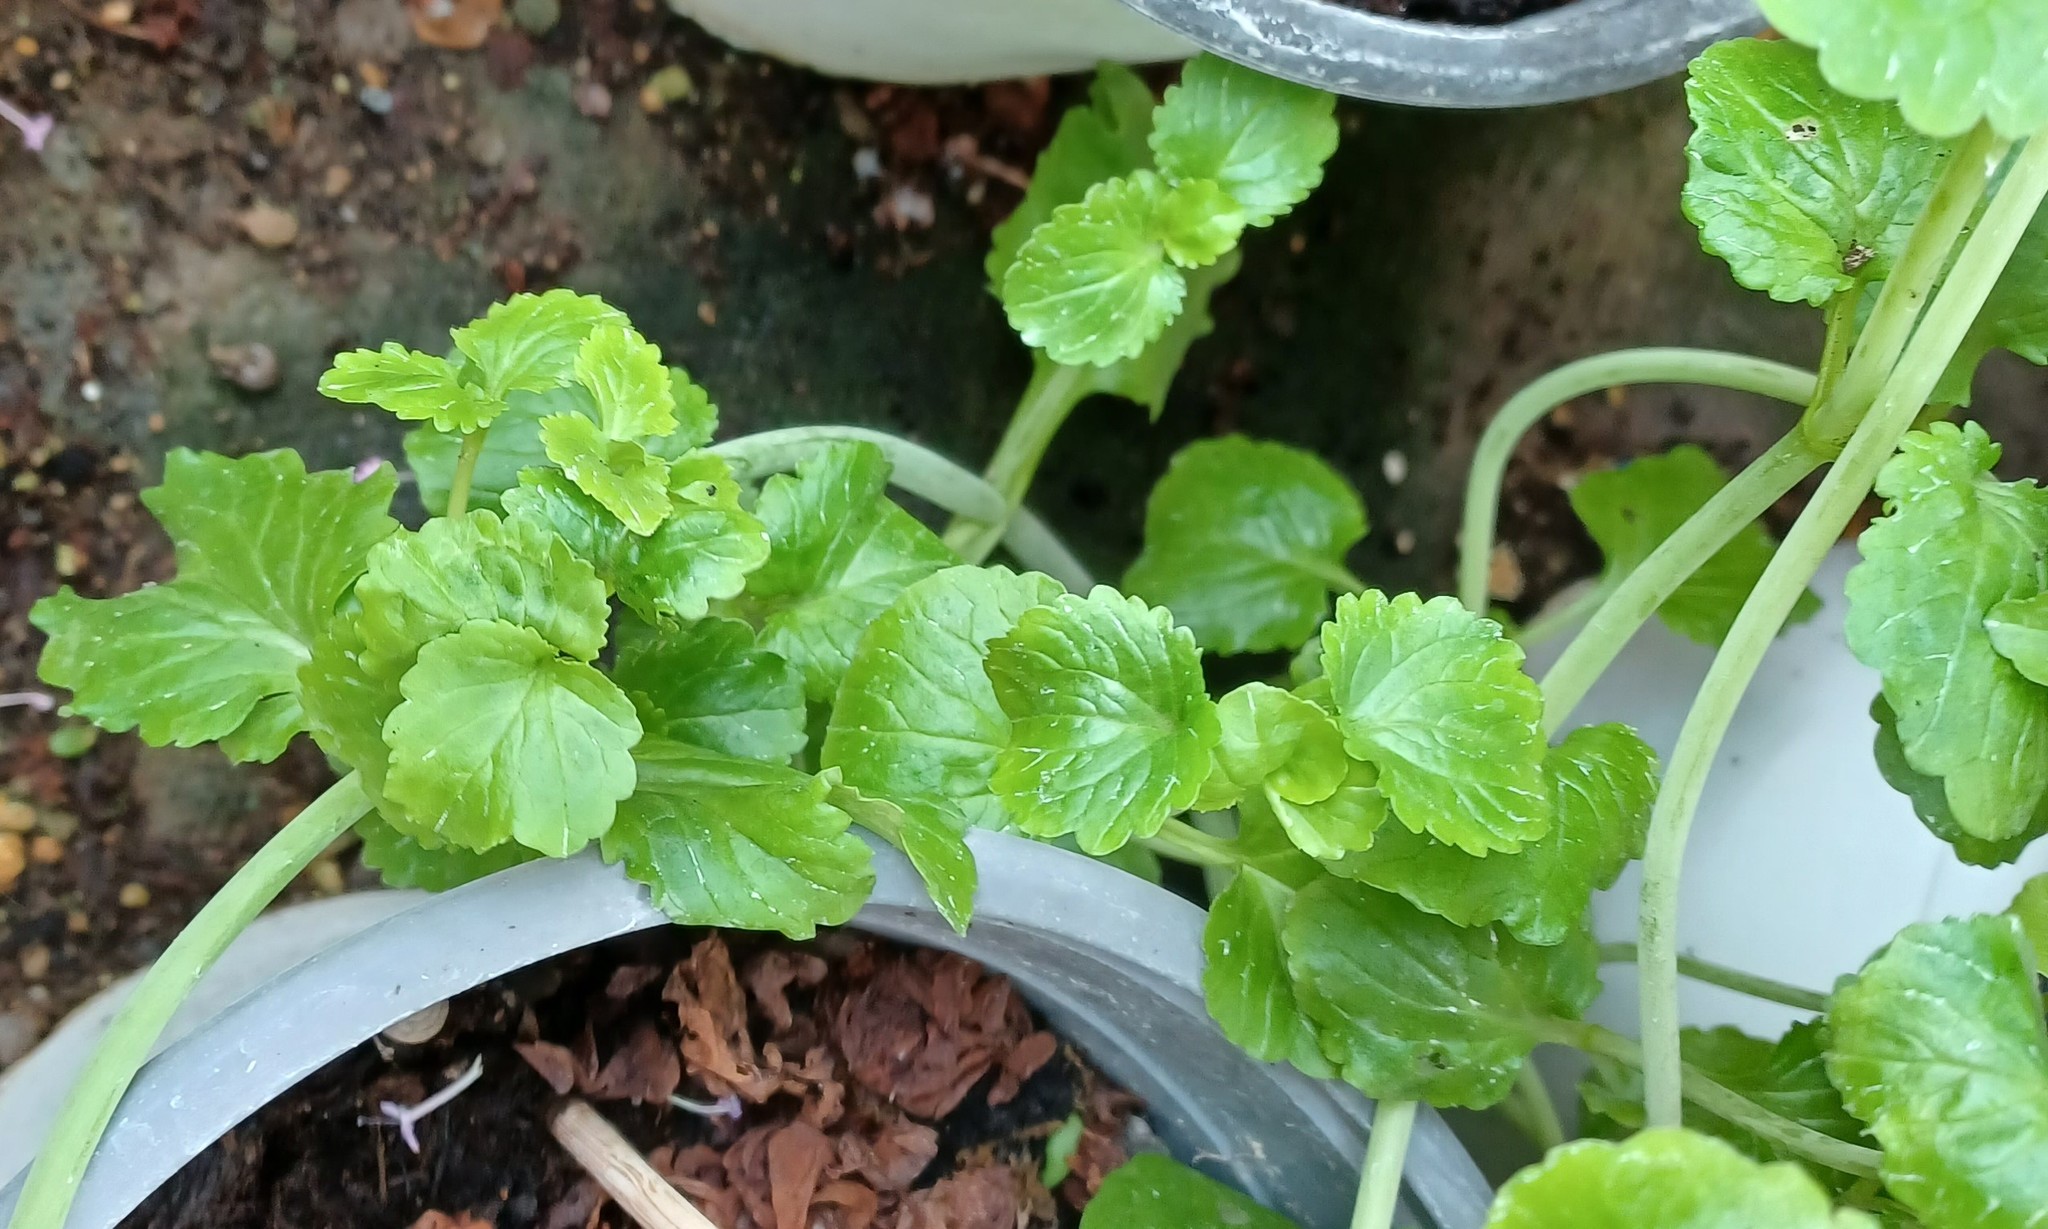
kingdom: Plantae
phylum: Tracheophyta
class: Magnoliopsida
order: Dipsacales
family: Caprifoliaceae
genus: Centranthus
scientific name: Centranthus macrosiphon
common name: Spanish-valerian
